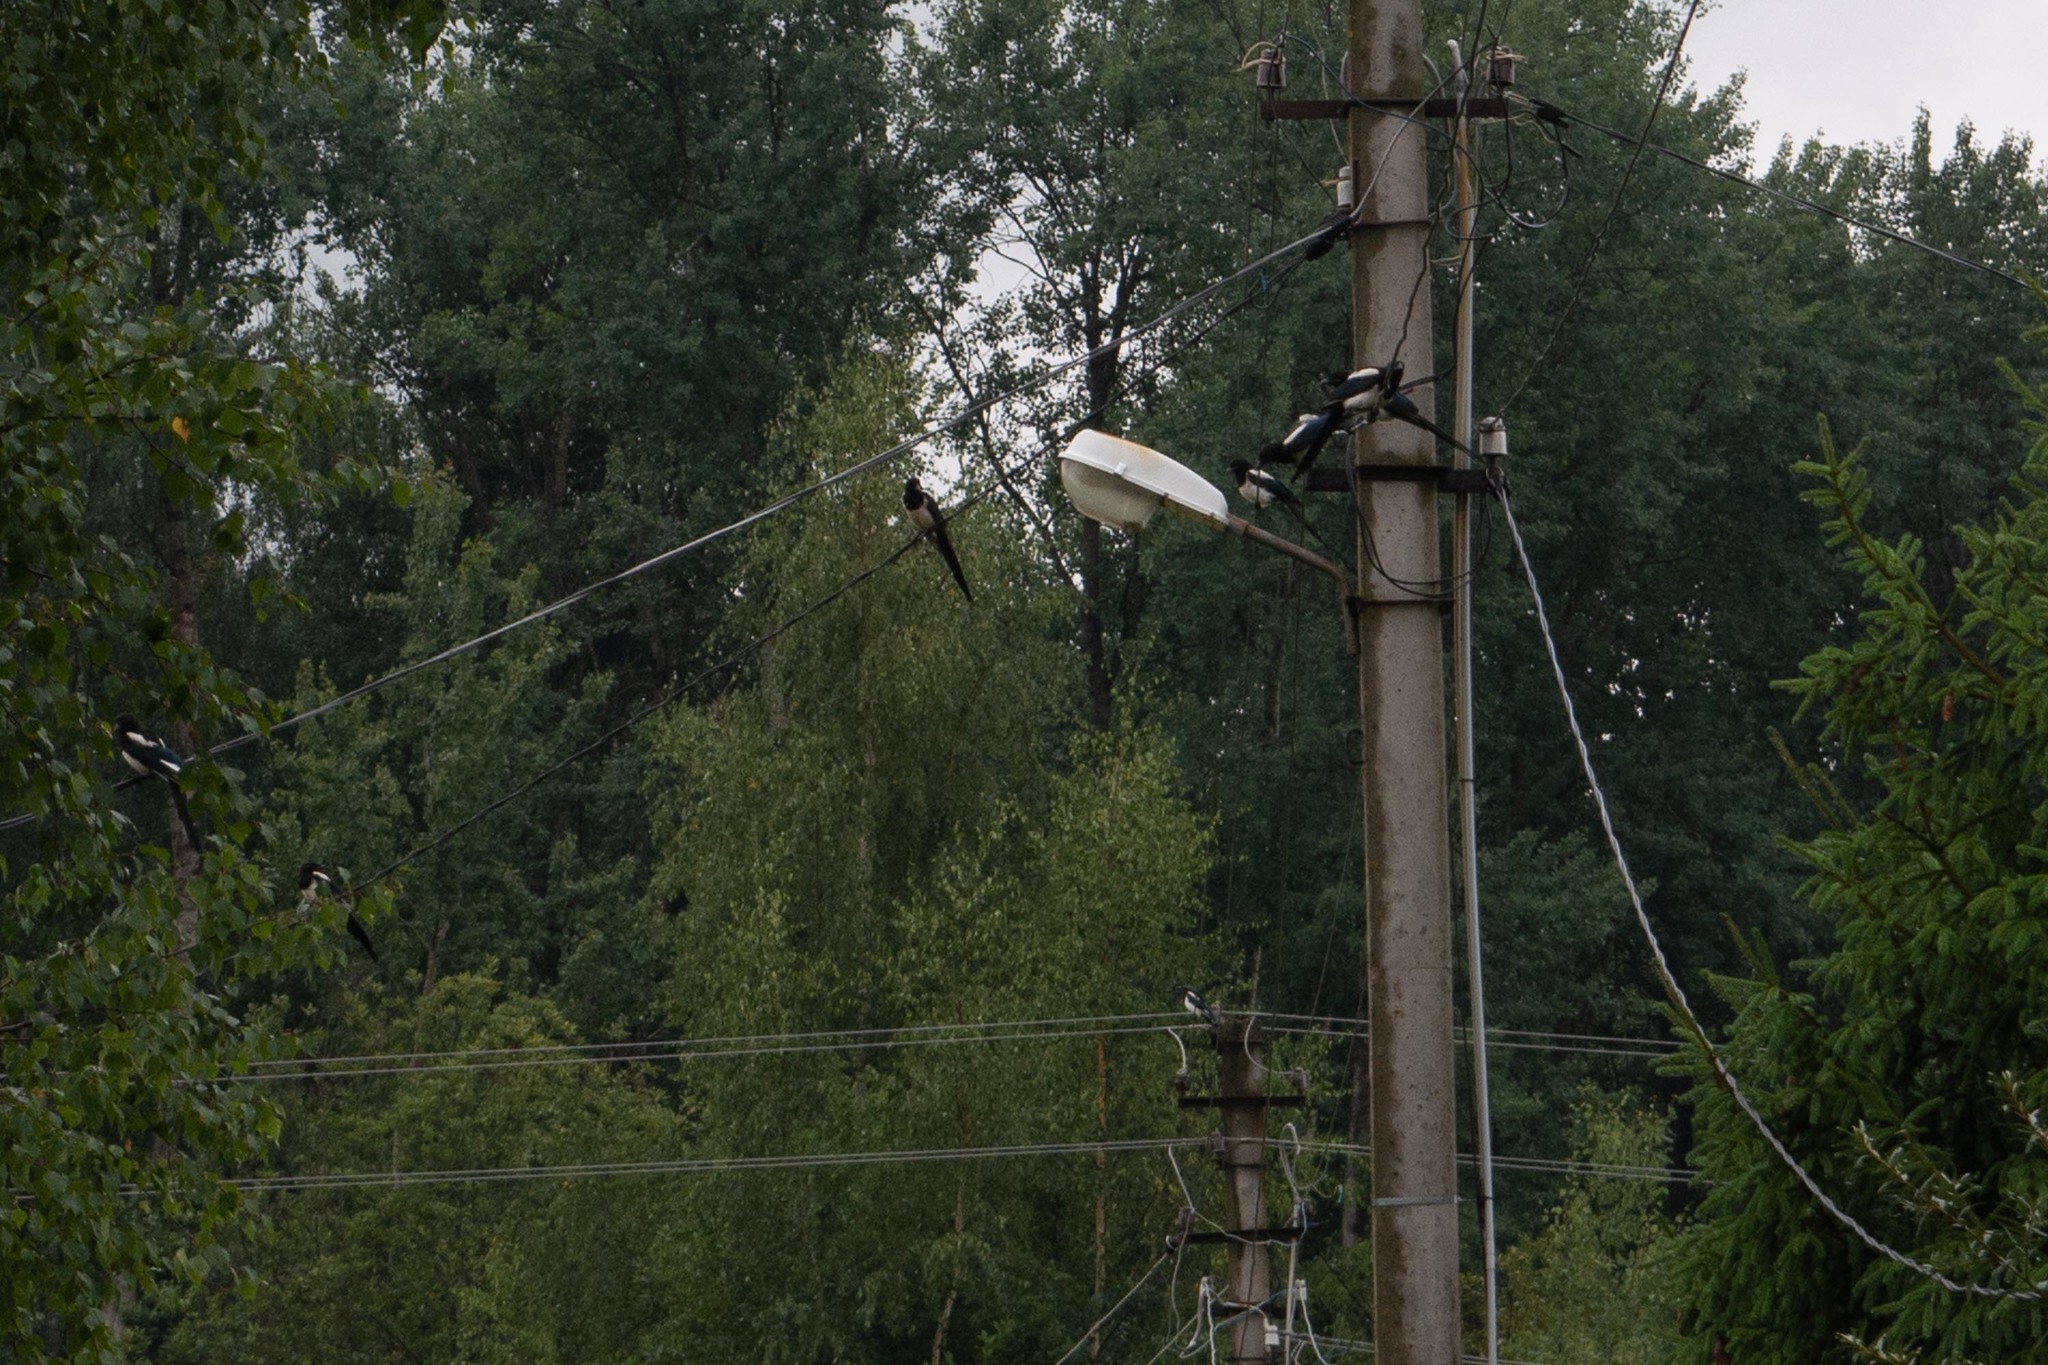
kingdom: Animalia
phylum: Chordata
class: Aves
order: Passeriformes
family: Corvidae
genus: Pica
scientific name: Pica pica
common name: Eurasian magpie
